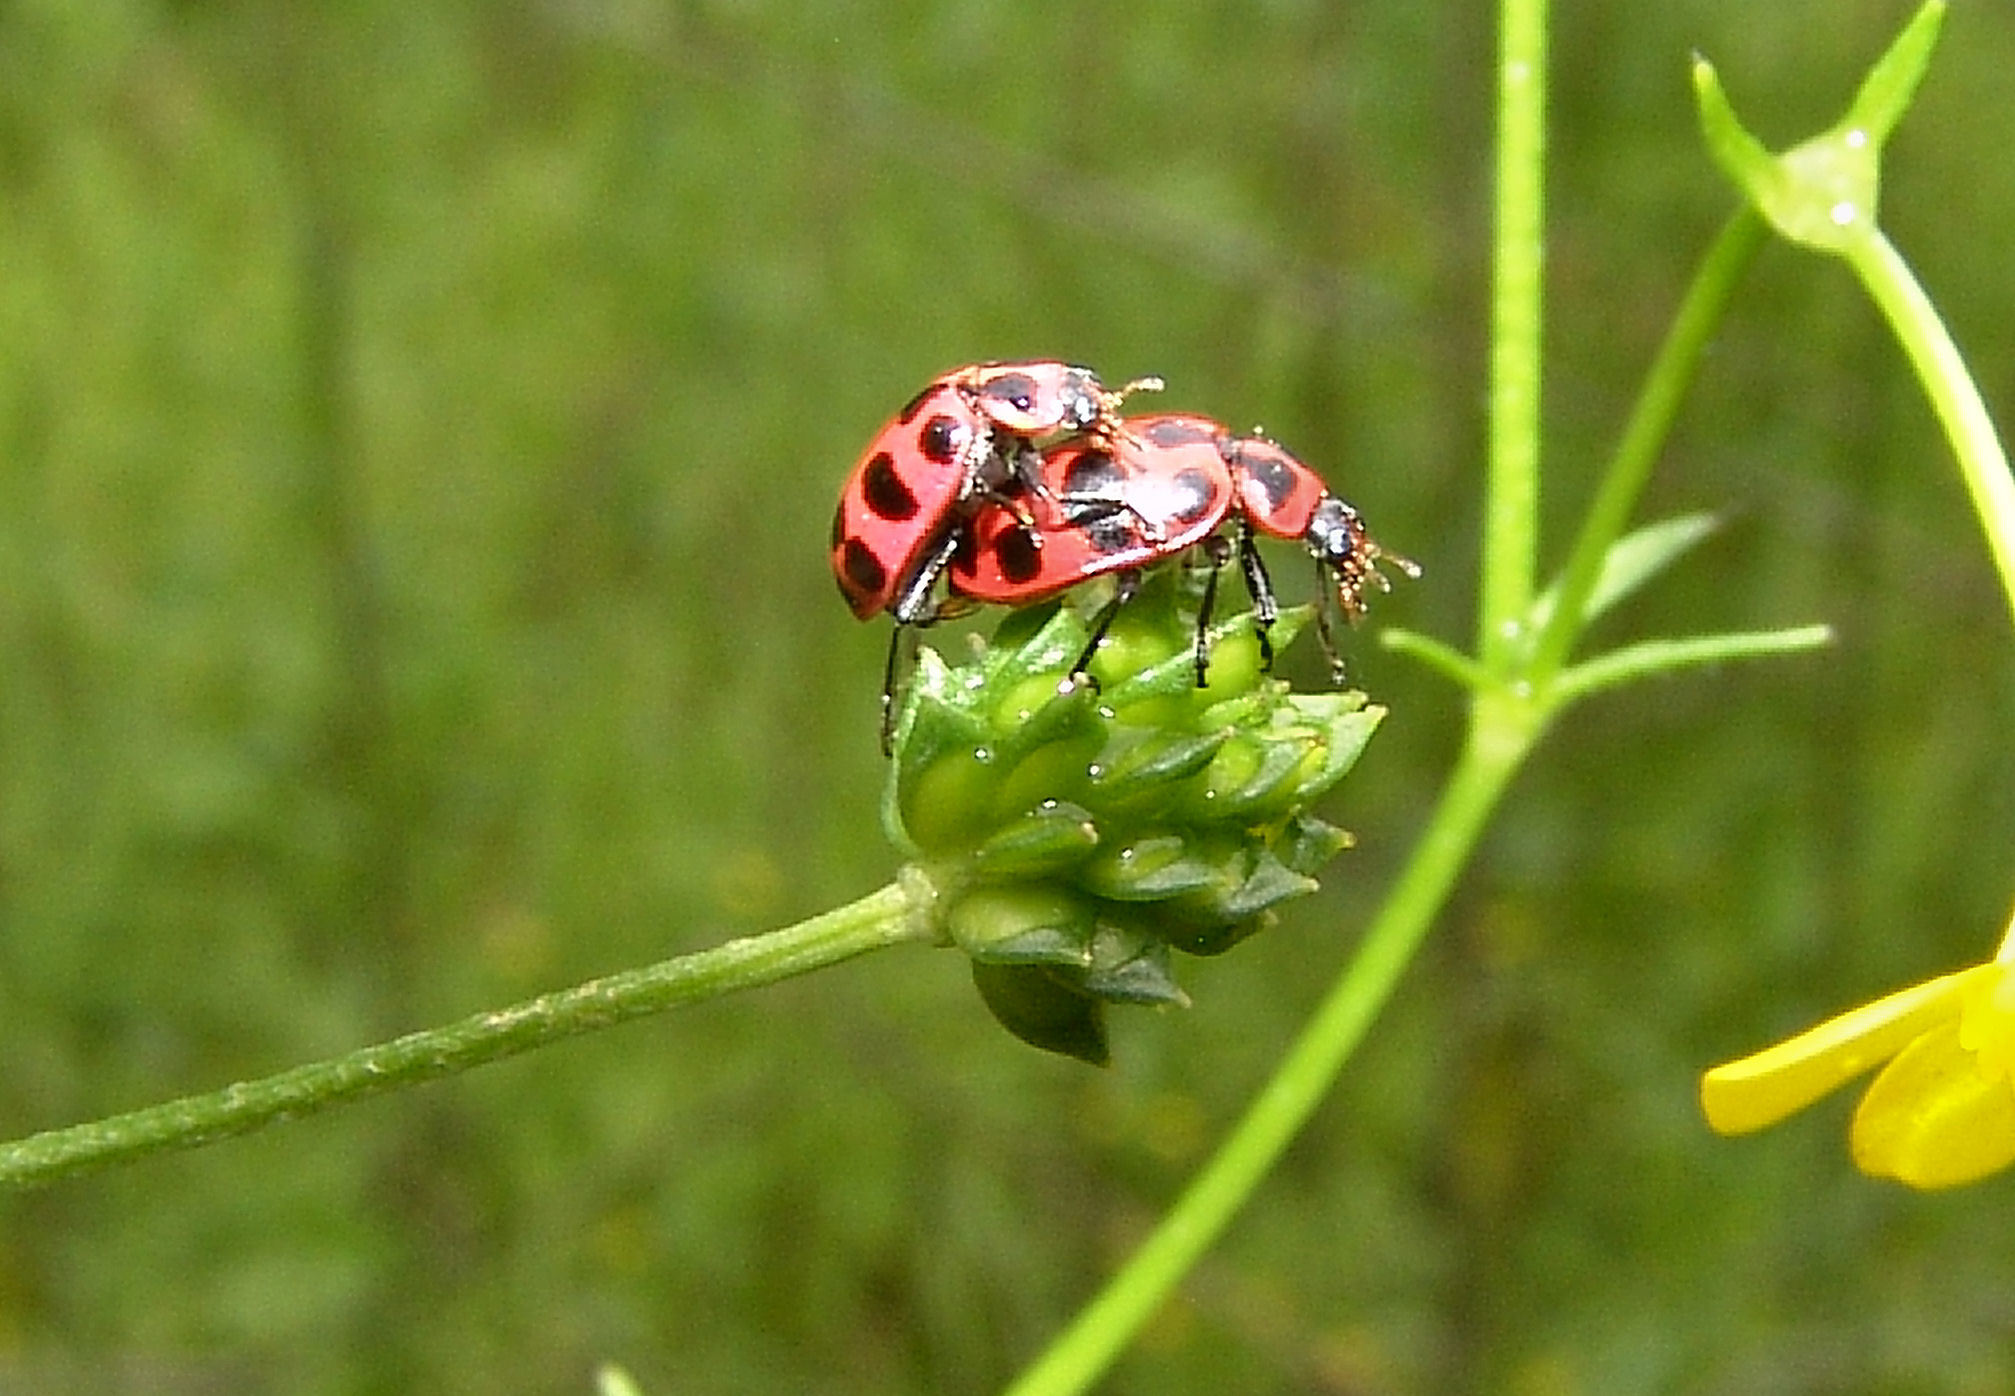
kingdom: Animalia
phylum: Arthropoda
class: Insecta
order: Coleoptera
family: Coccinellidae
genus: Coleomegilla
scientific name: Coleomegilla maculata
